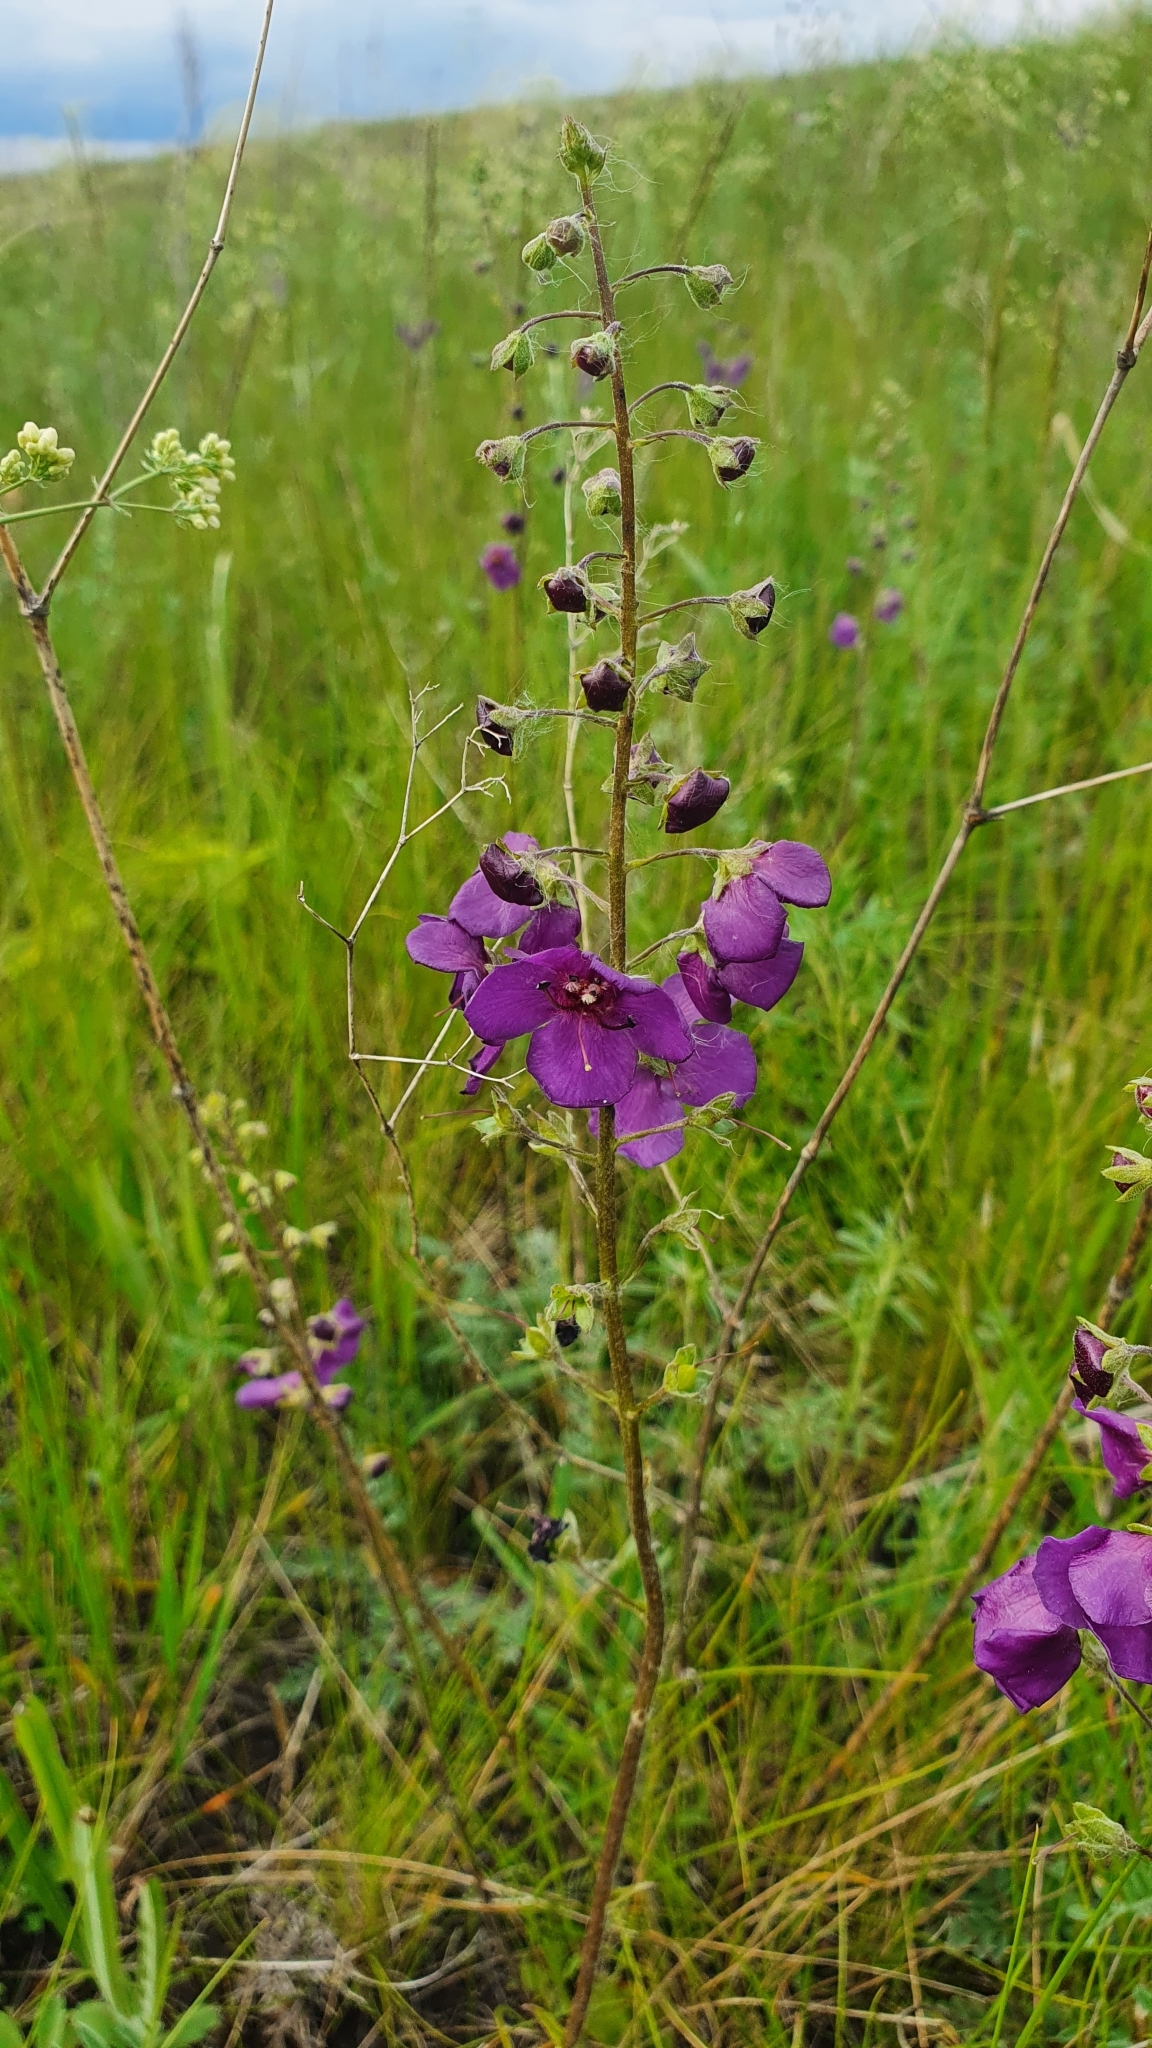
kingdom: Plantae
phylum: Tracheophyta
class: Magnoliopsida
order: Lamiales
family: Scrophulariaceae
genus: Verbascum
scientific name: Verbascum phoeniceum
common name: Purple mullein
